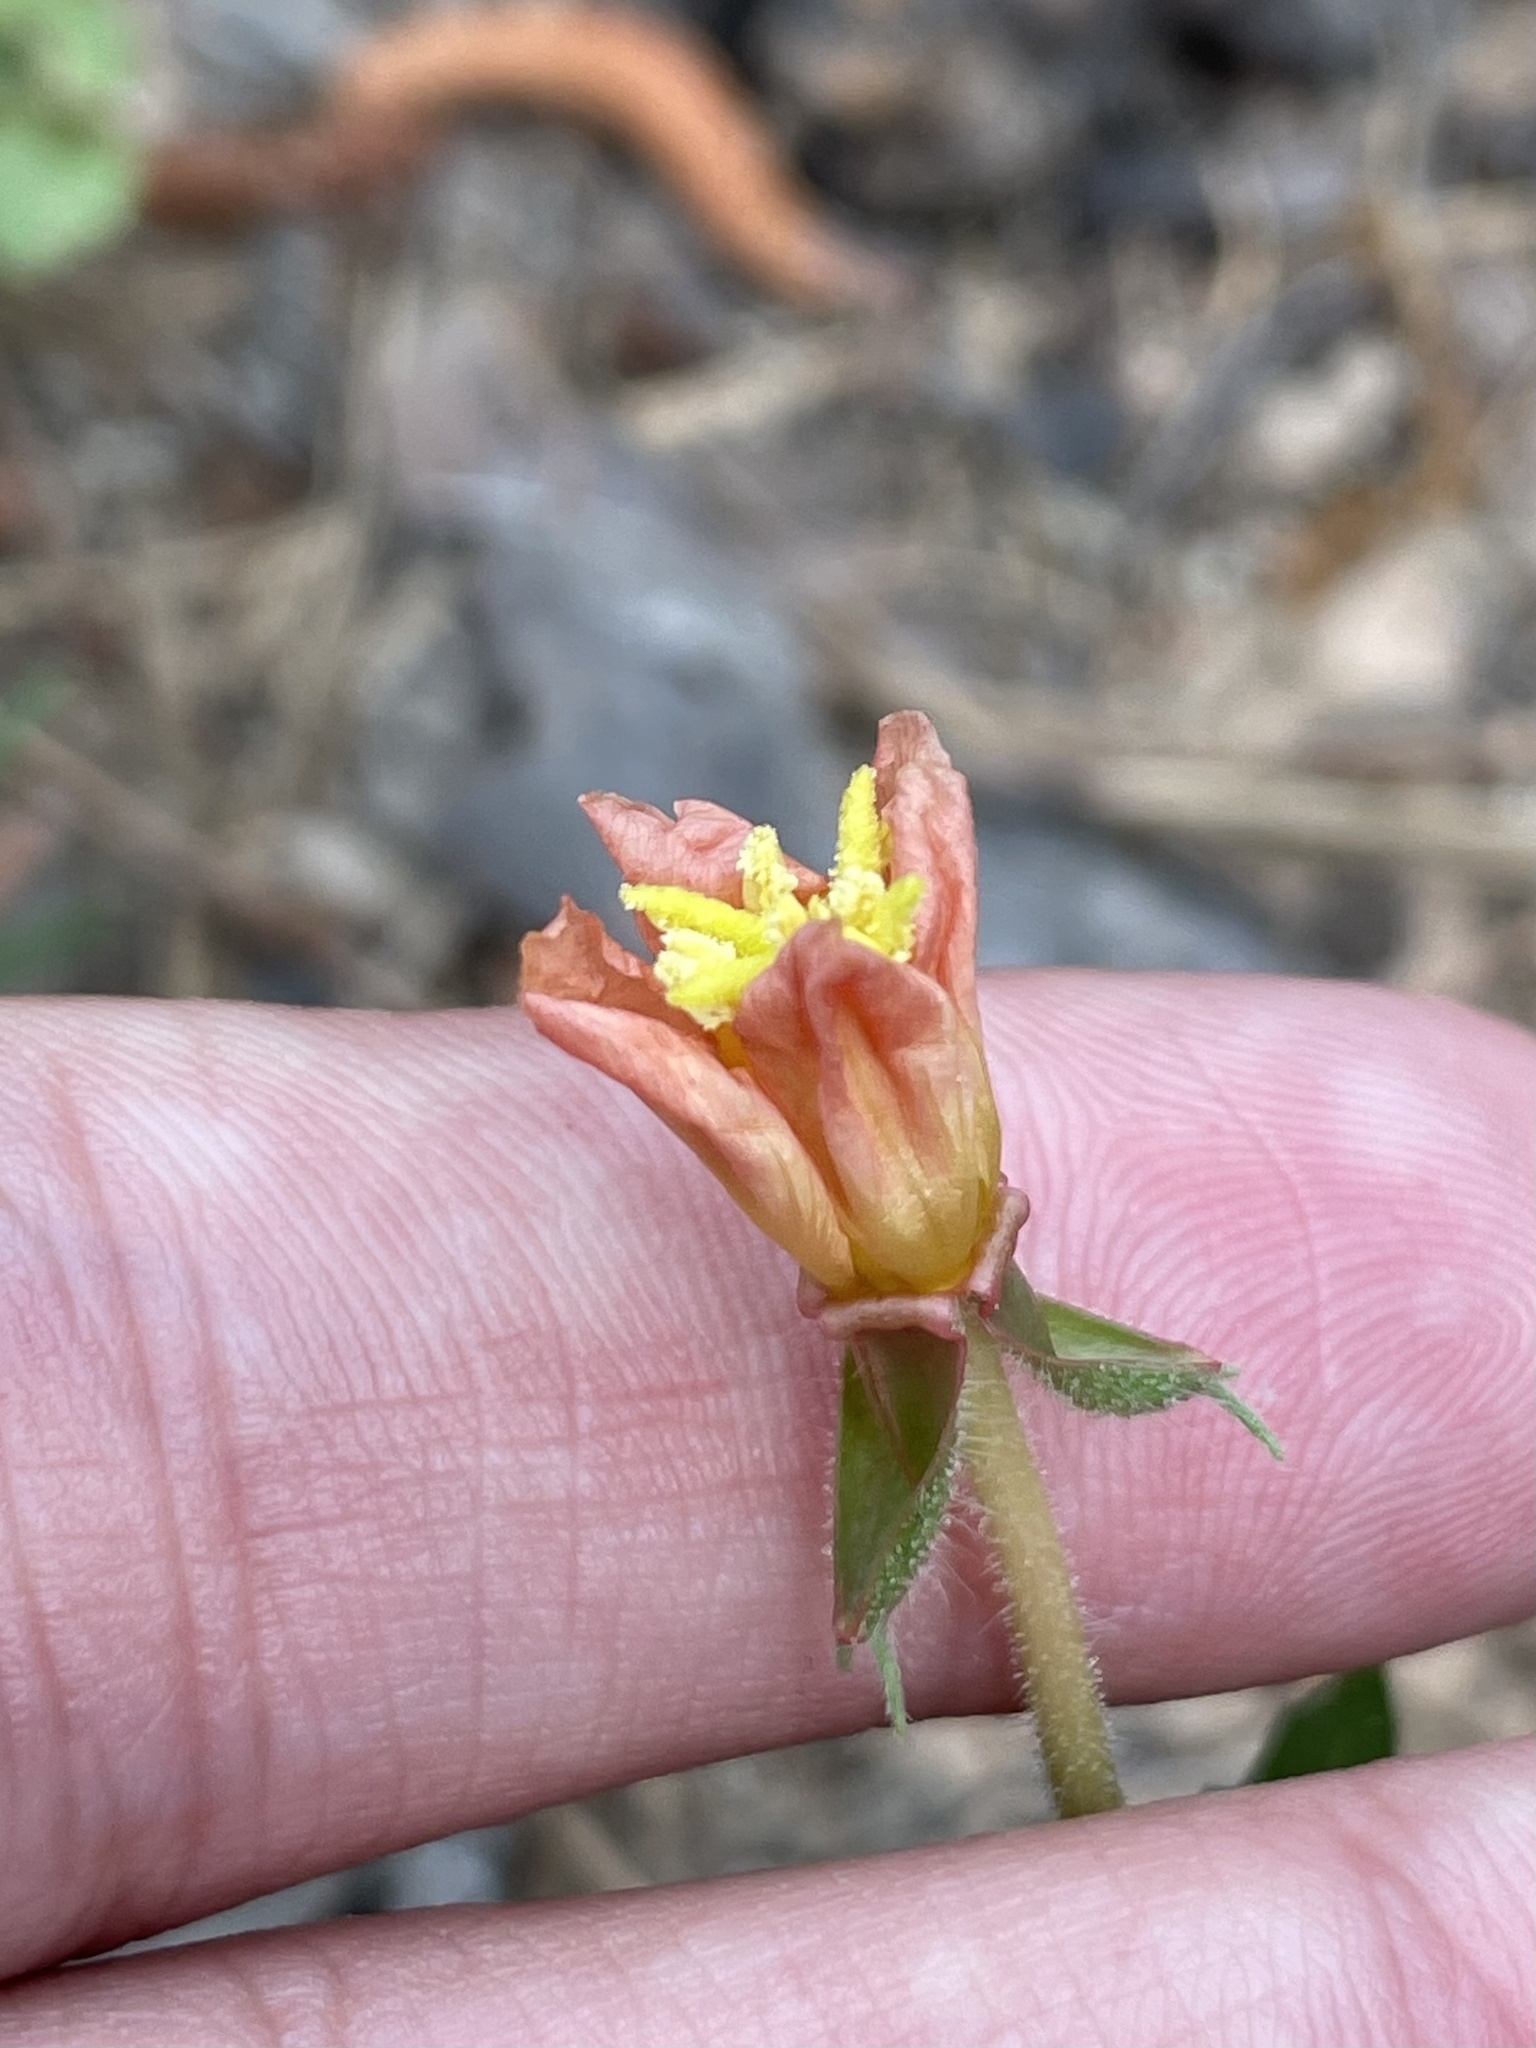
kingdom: Plantae
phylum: Tracheophyta
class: Magnoliopsida
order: Myrtales
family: Onagraceae
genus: Oenothera
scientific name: Oenothera laciniata
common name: Cut-leaved evening-primrose
